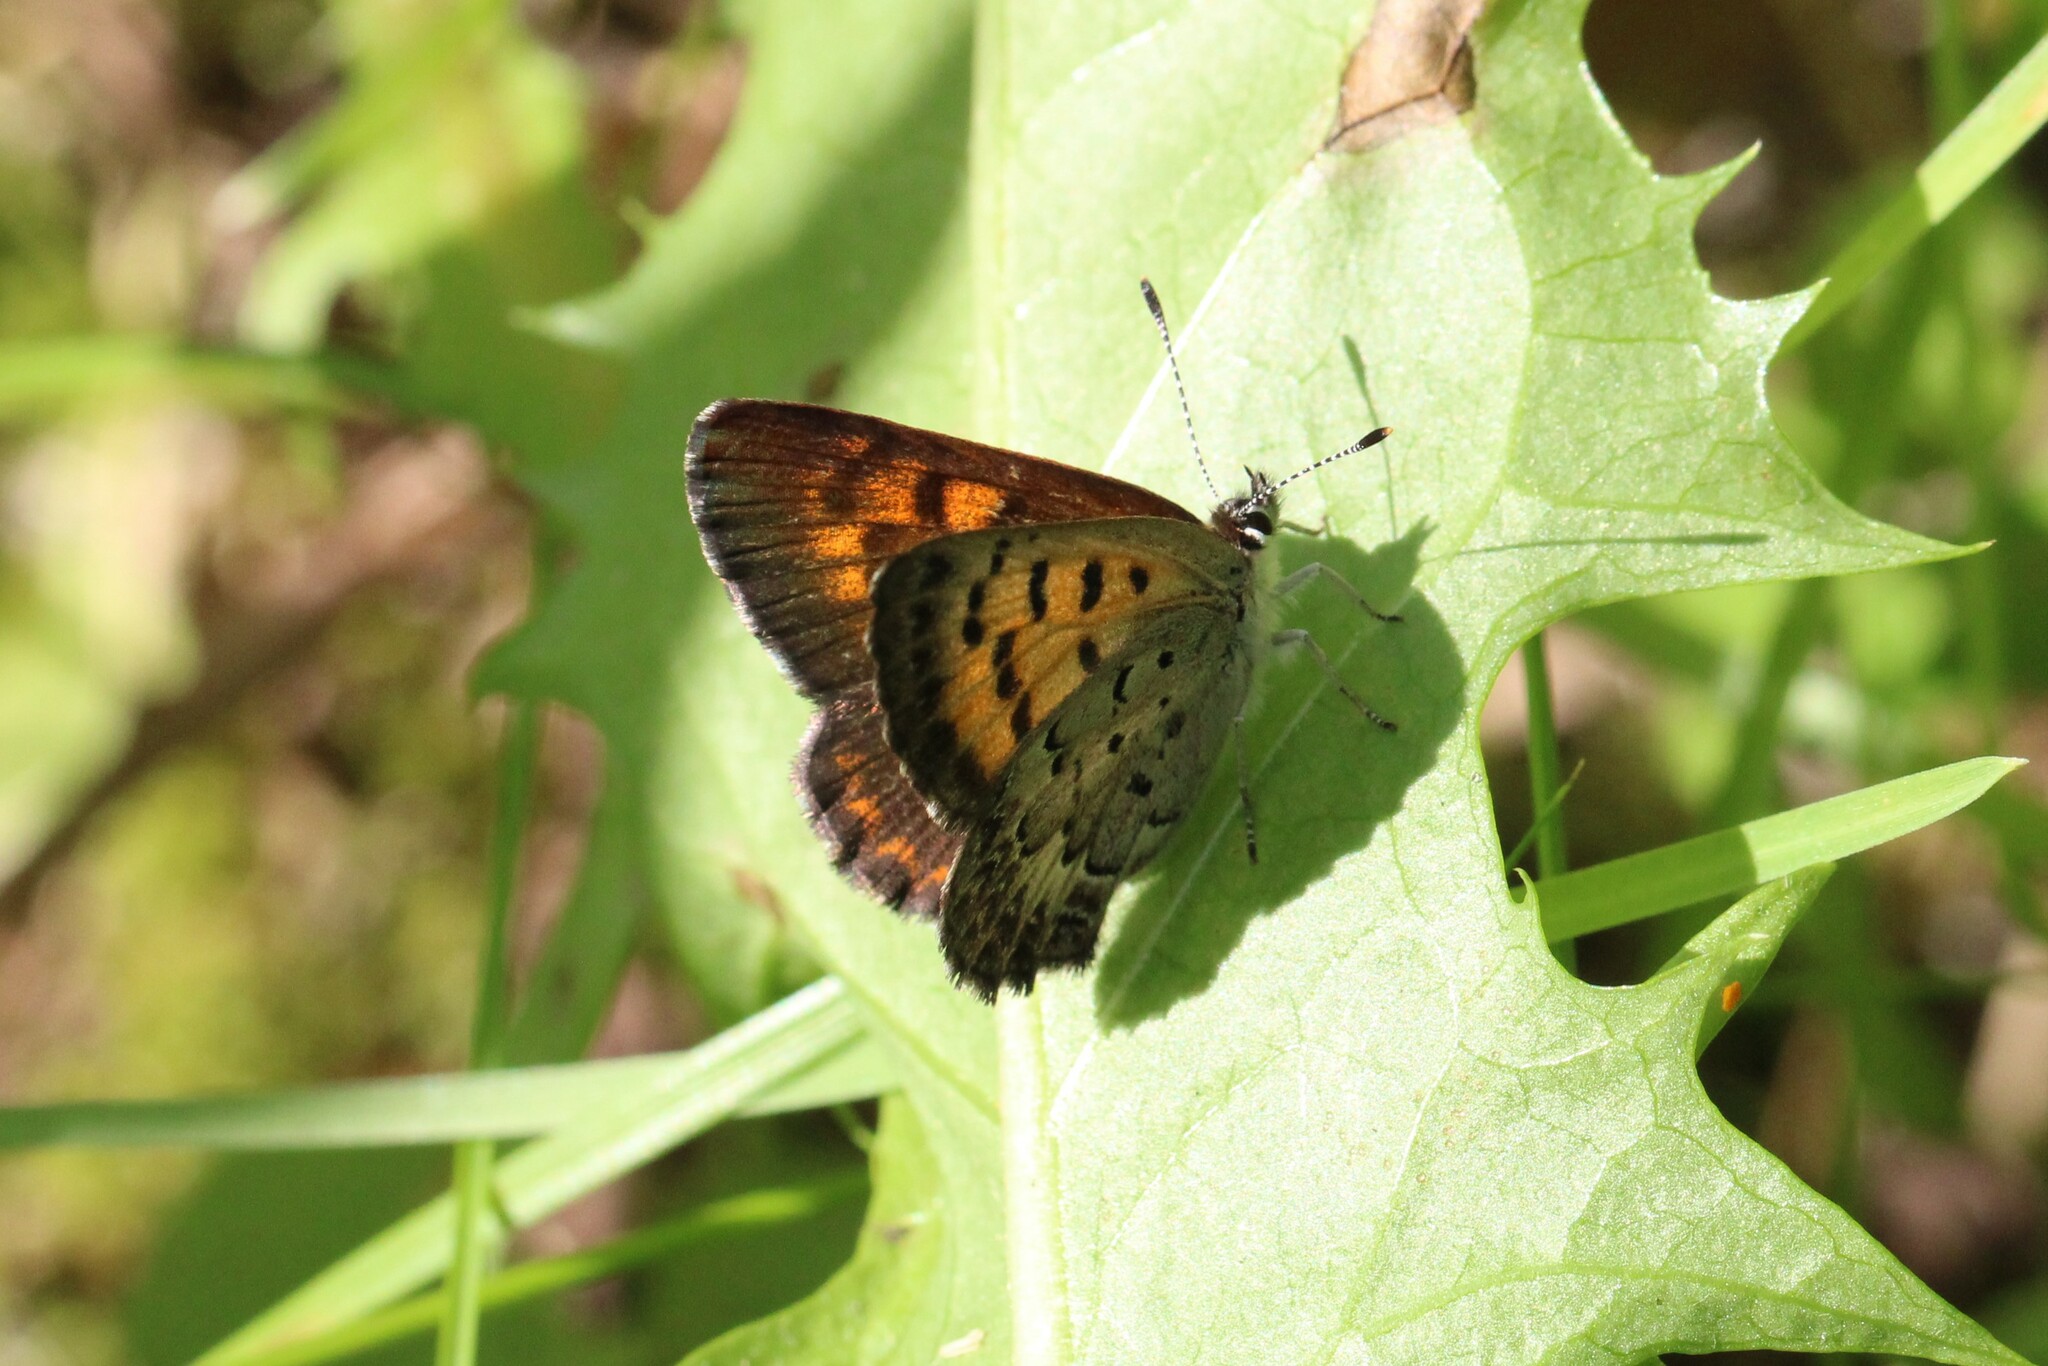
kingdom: Animalia
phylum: Arthropoda
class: Insecta
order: Lepidoptera
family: Lycaenidae
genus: Tharsalea
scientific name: Tharsalea mariposa
